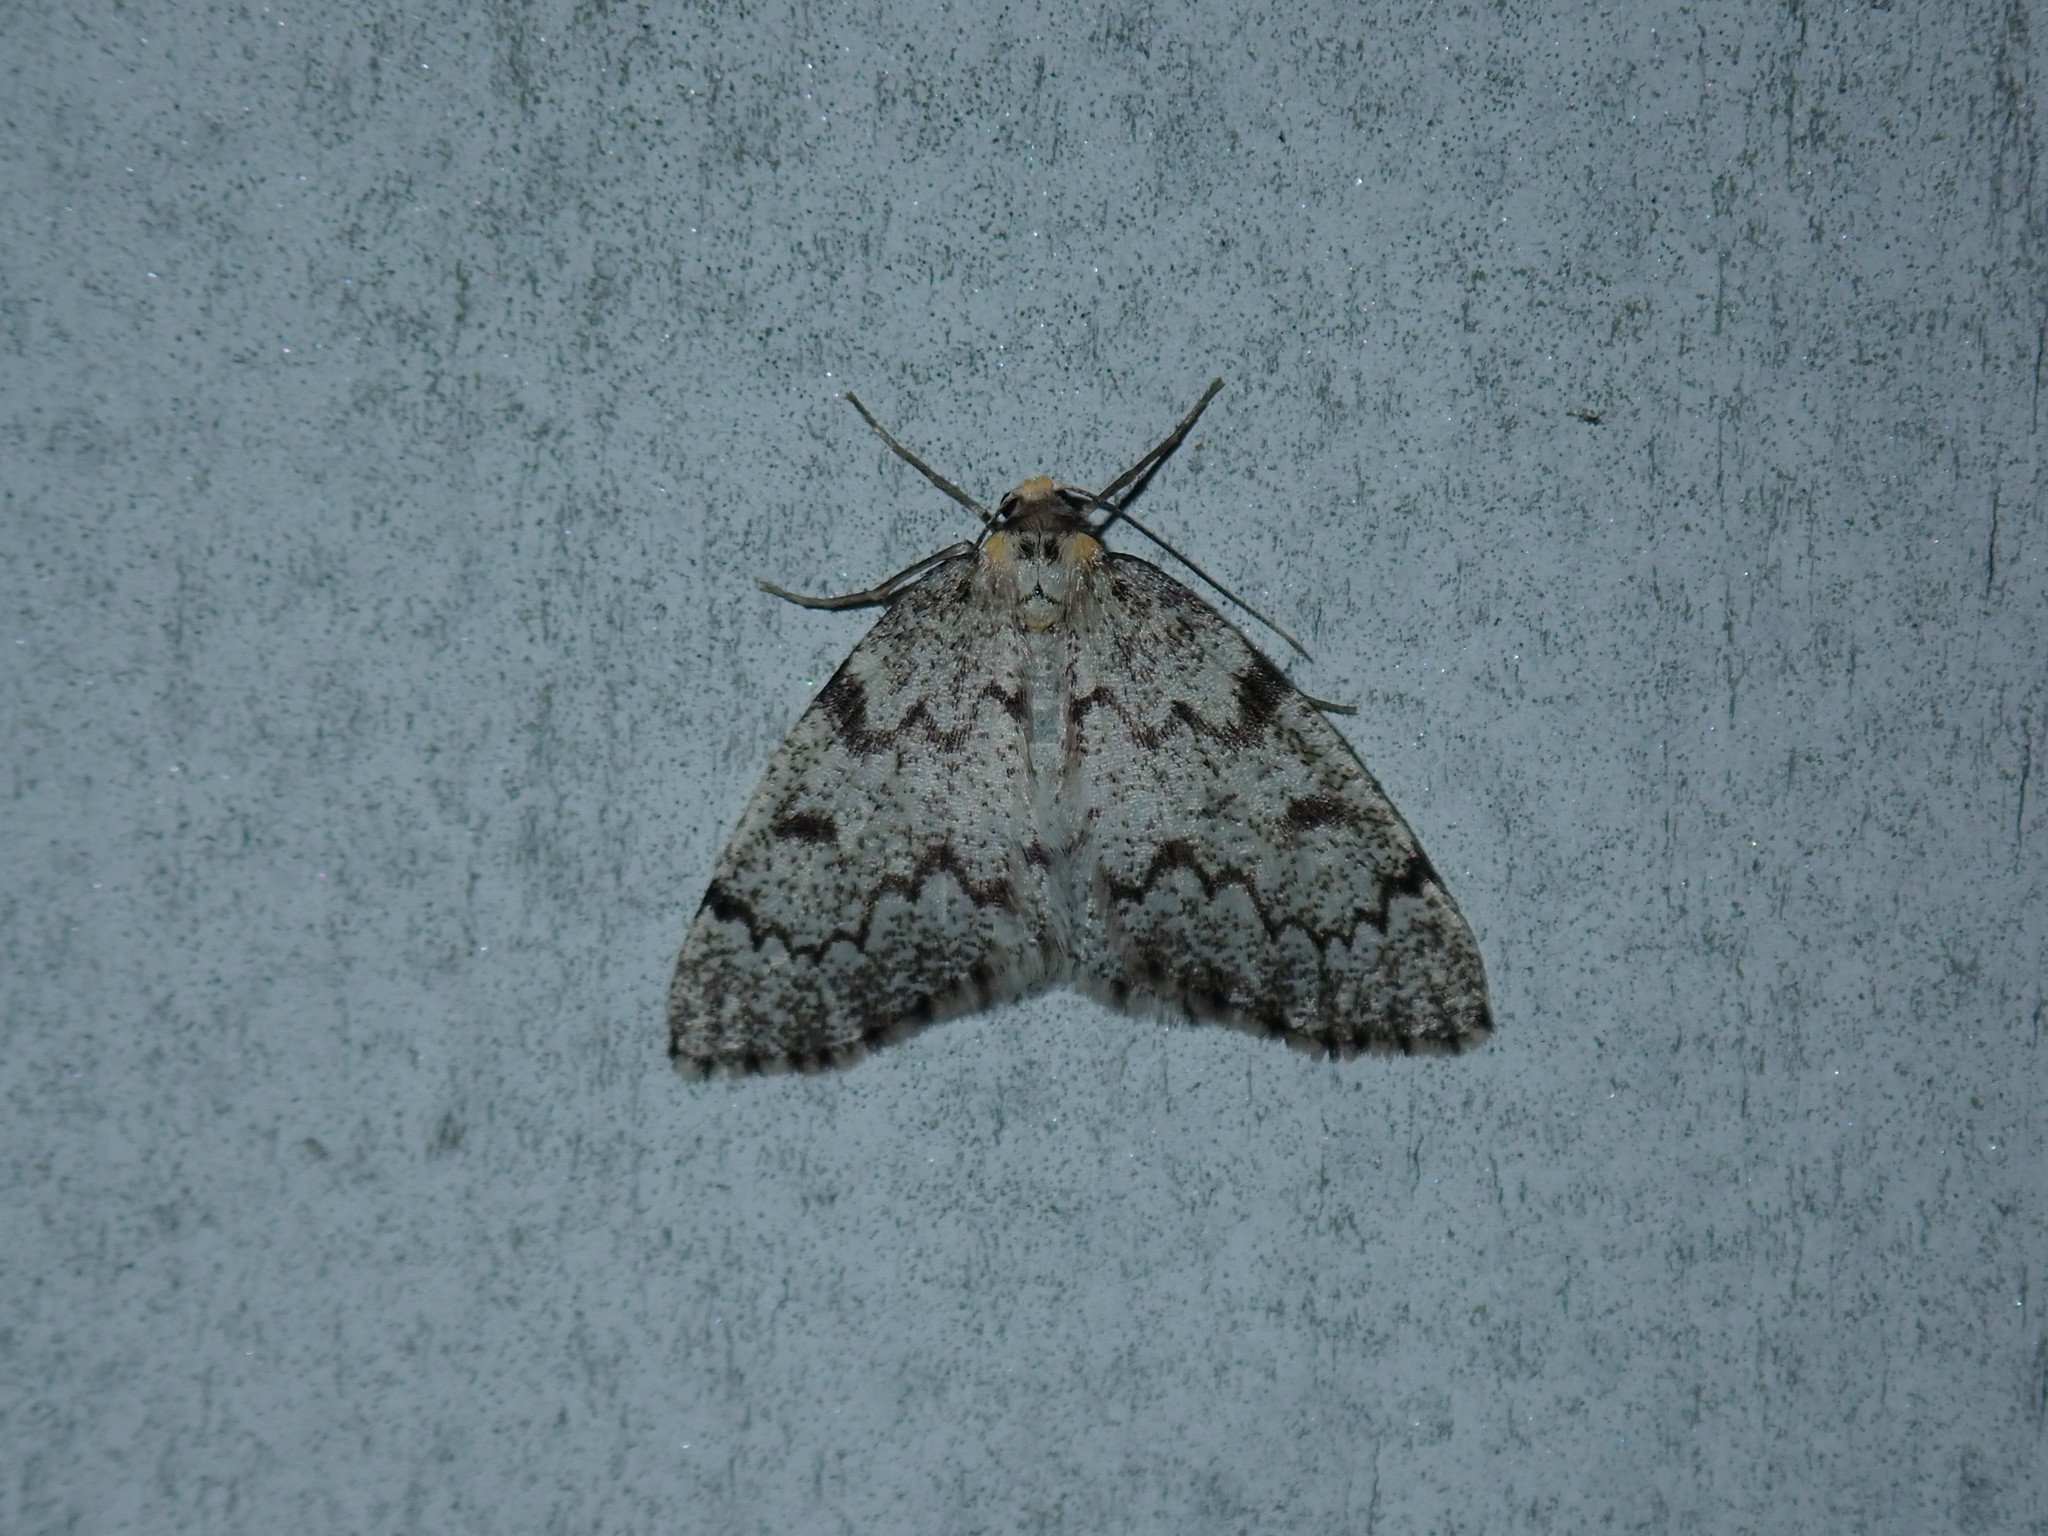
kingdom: Animalia
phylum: Arthropoda
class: Insecta
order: Lepidoptera
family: Geometridae
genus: Nepytia
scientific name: Nepytia canosaria
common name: False hemlock looper
